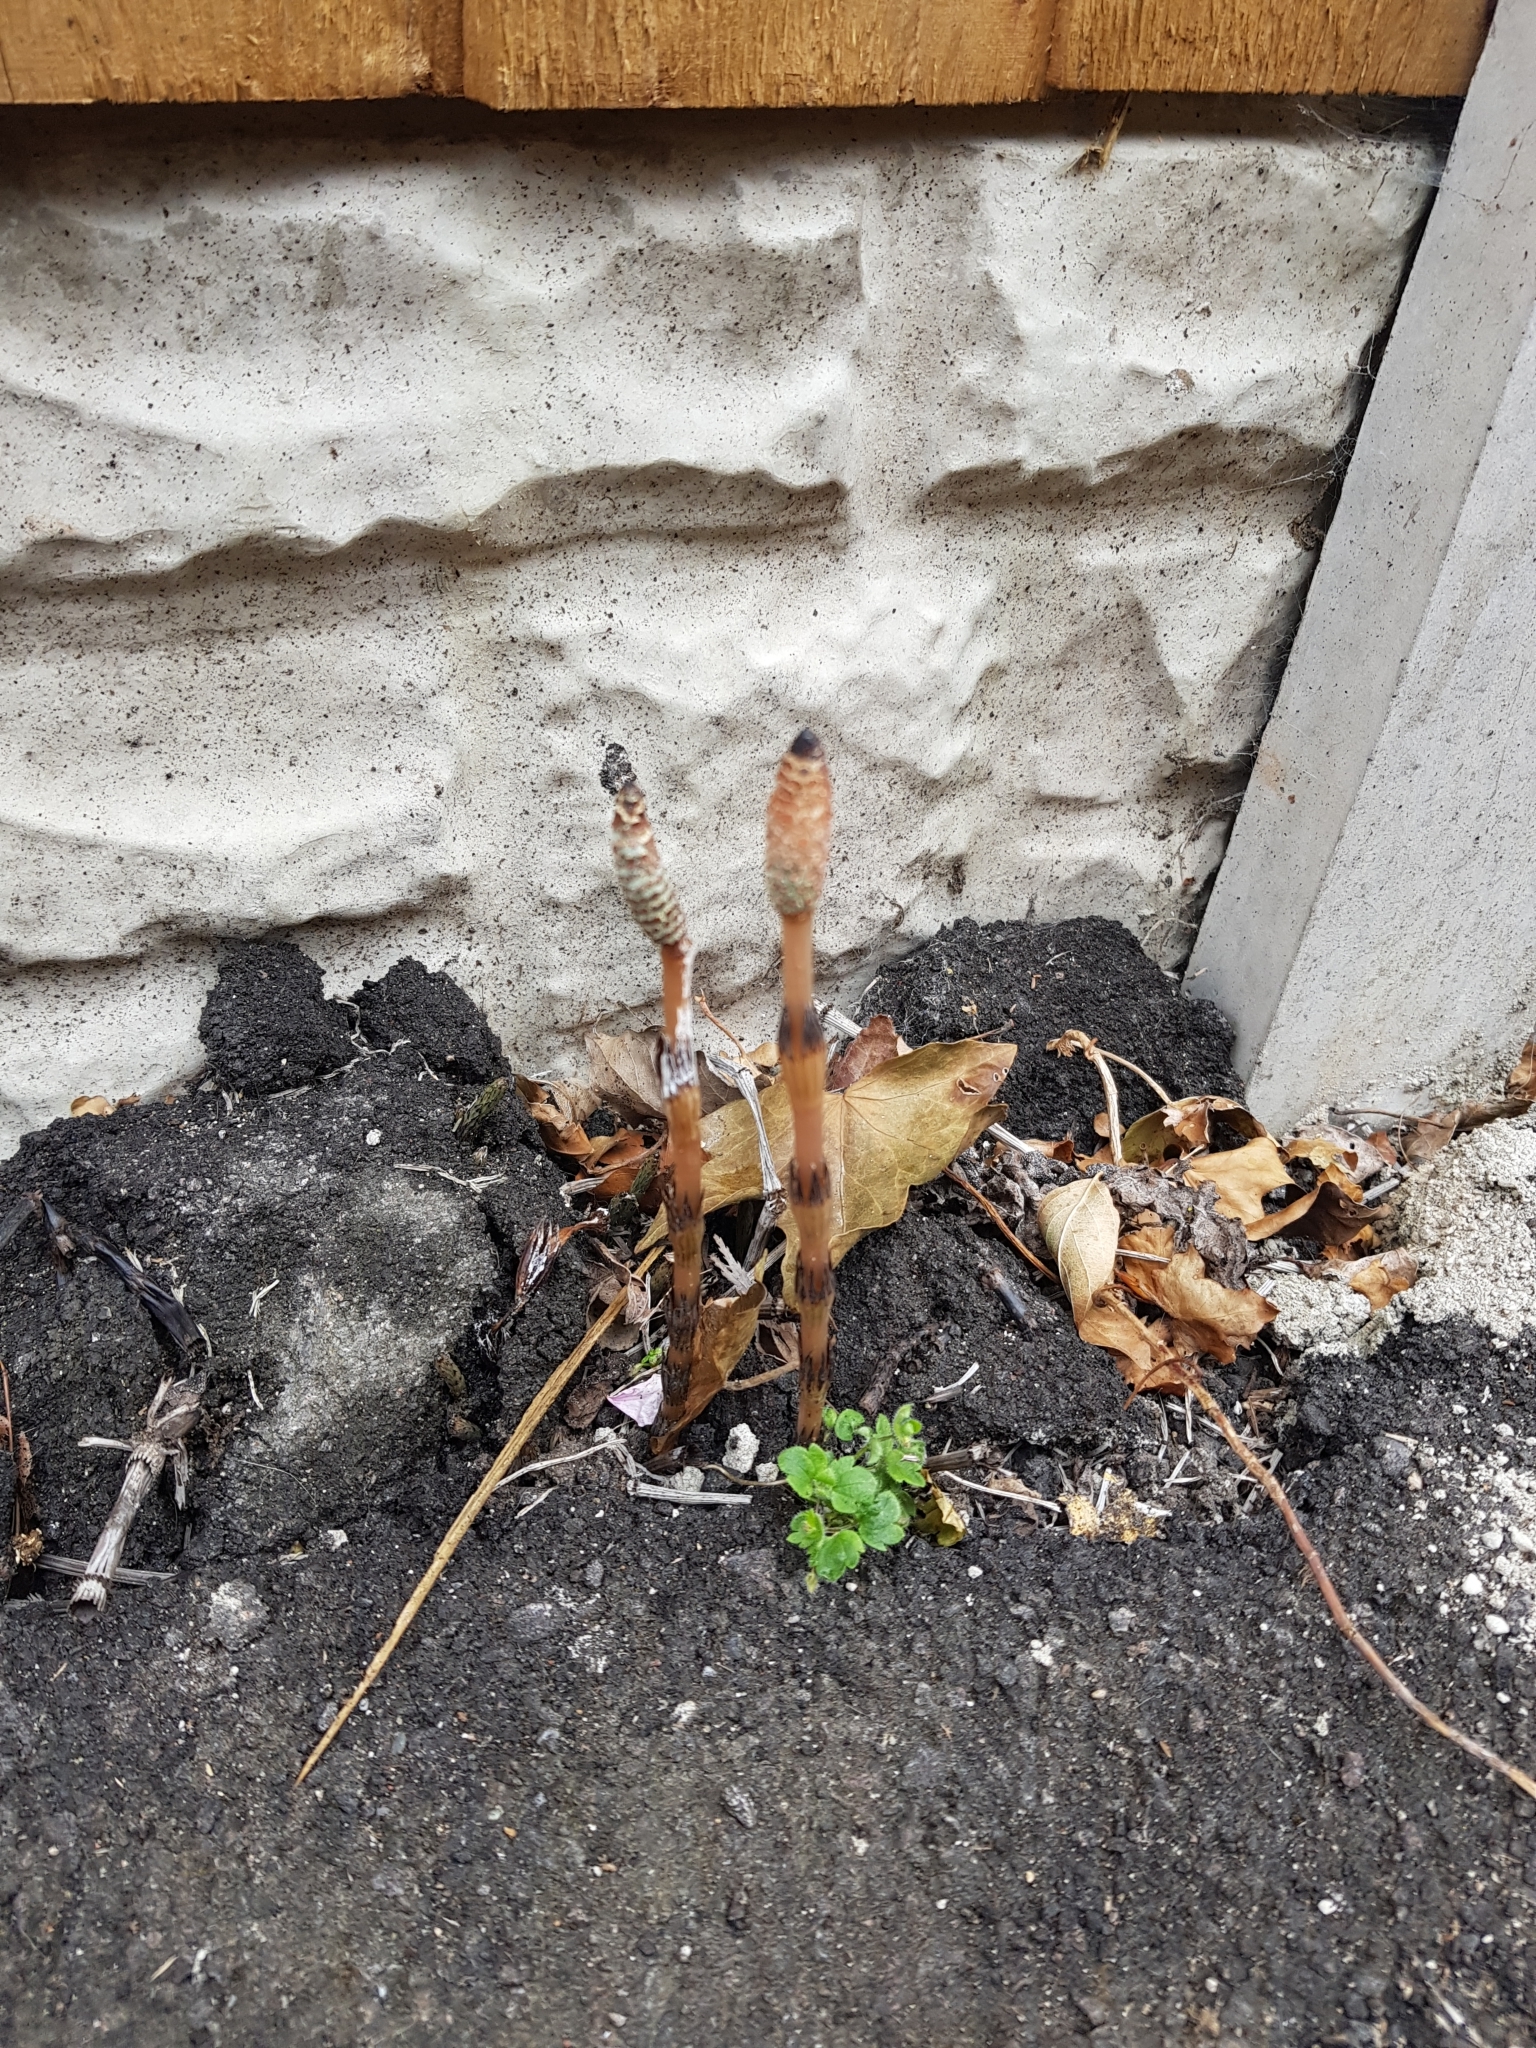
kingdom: Plantae
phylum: Tracheophyta
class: Polypodiopsida
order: Equisetales
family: Equisetaceae
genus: Equisetum
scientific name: Equisetum arvense
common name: Field horsetail
